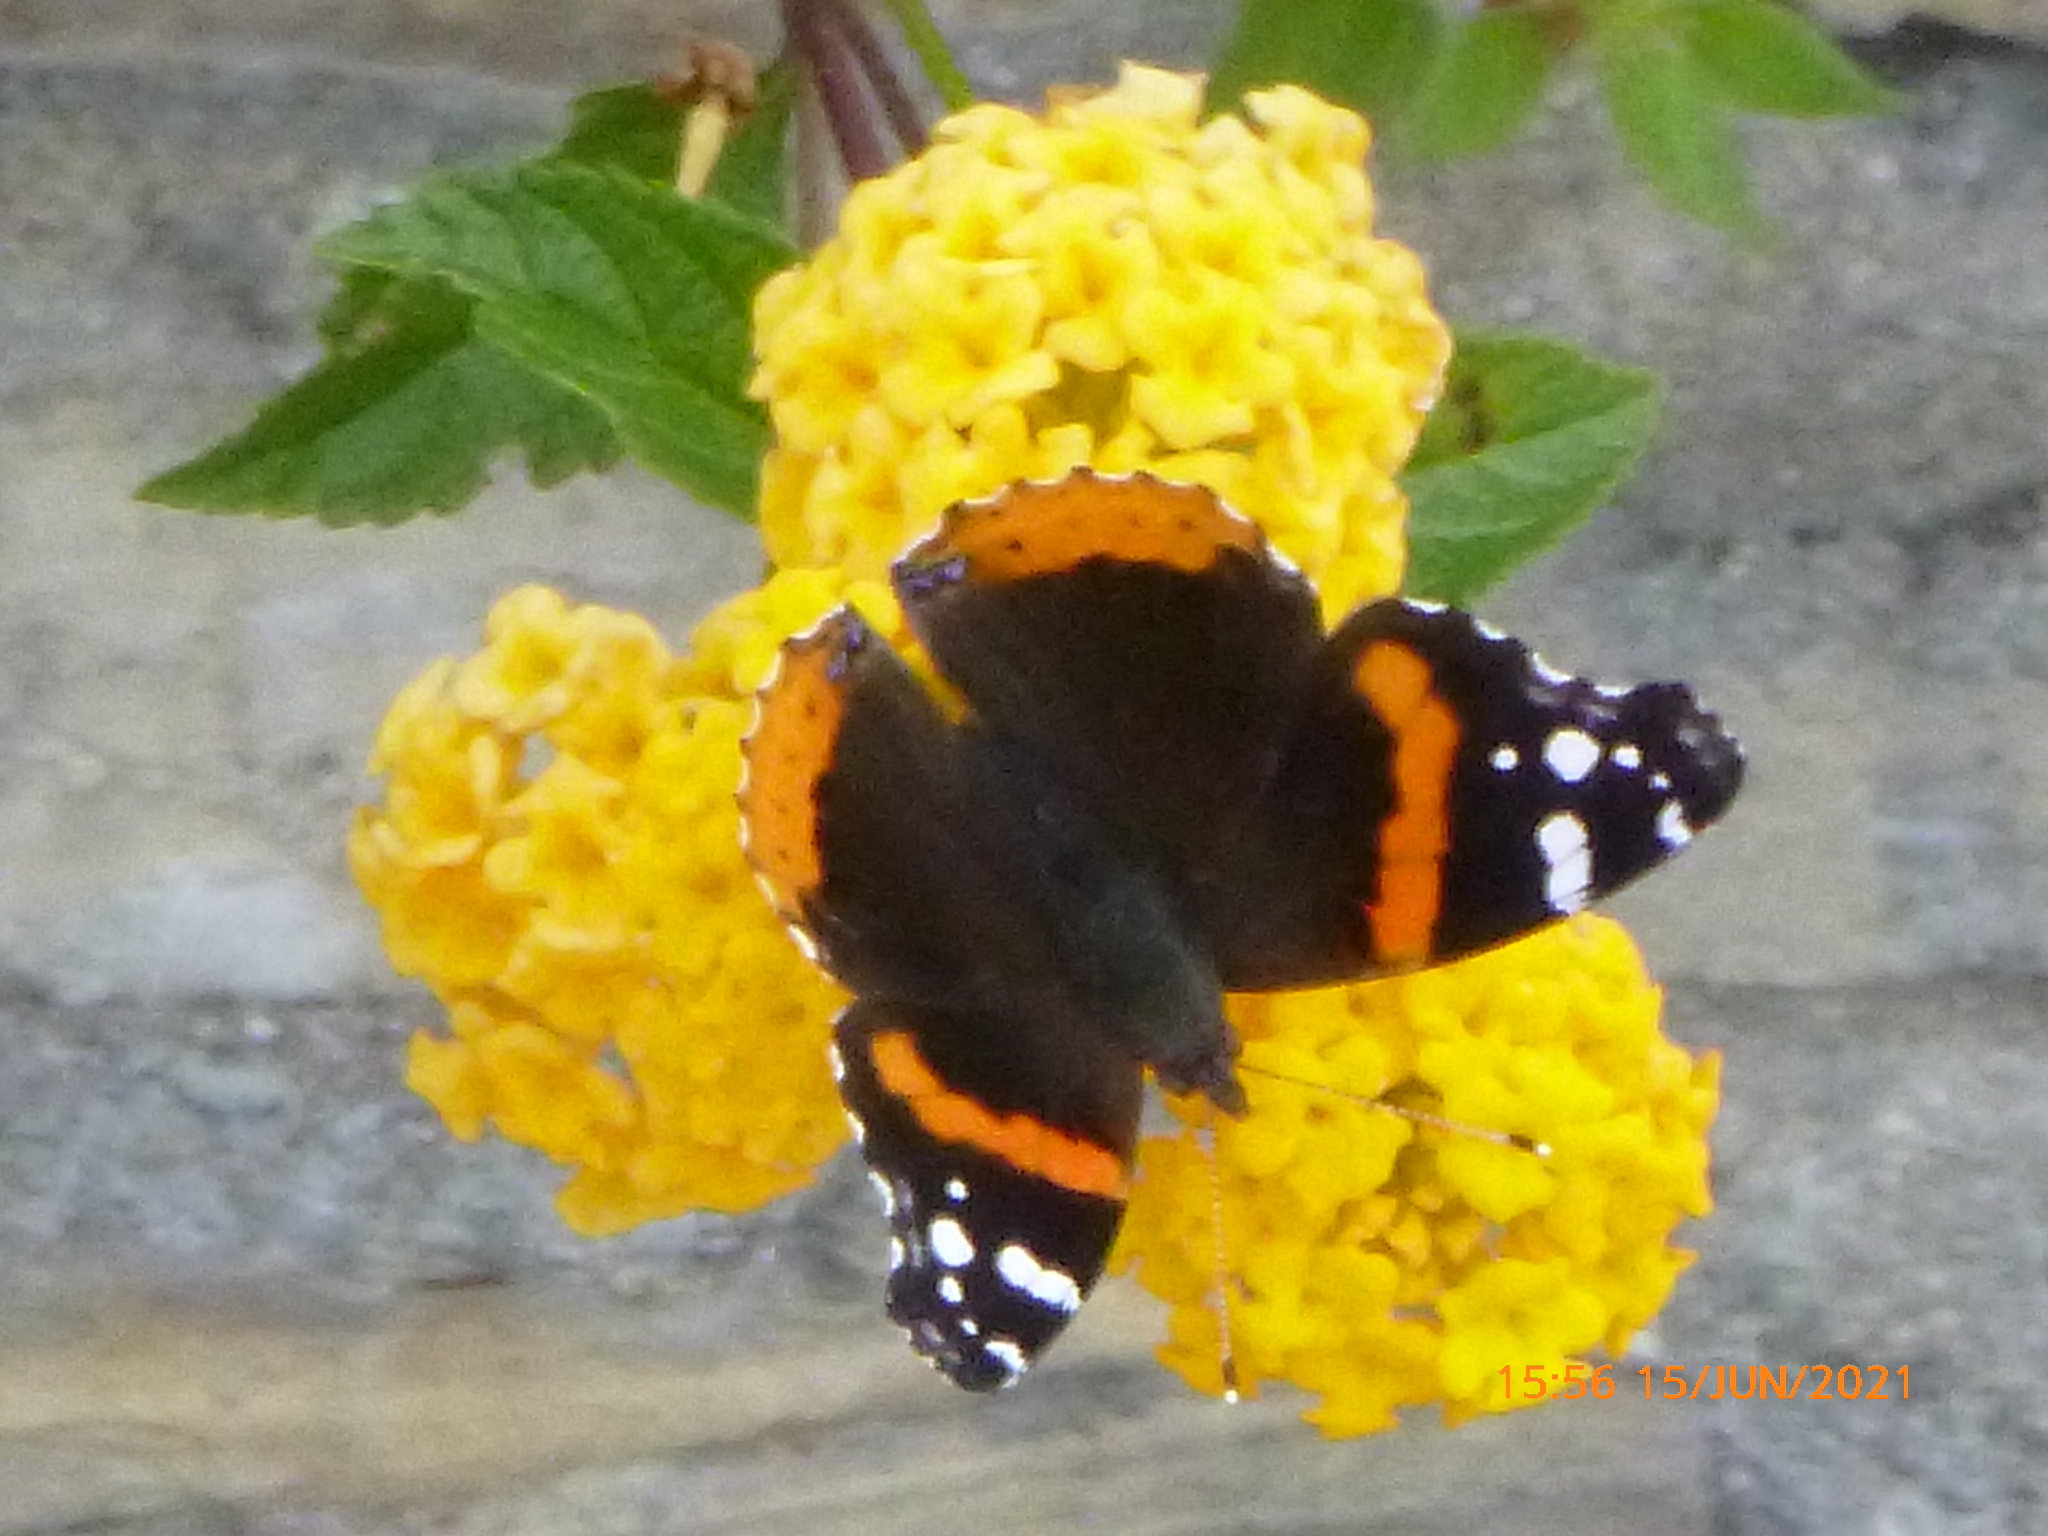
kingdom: Animalia
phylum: Arthropoda
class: Insecta
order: Lepidoptera
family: Nymphalidae
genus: Vanessa
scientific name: Vanessa atalanta
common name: Red admiral
